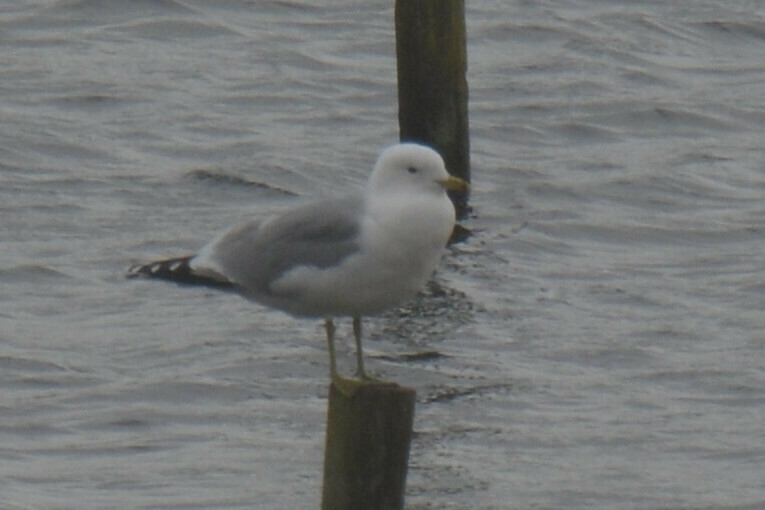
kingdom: Animalia
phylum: Chordata
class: Aves
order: Charadriiformes
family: Laridae
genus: Larus
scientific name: Larus canus
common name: Mew gull
